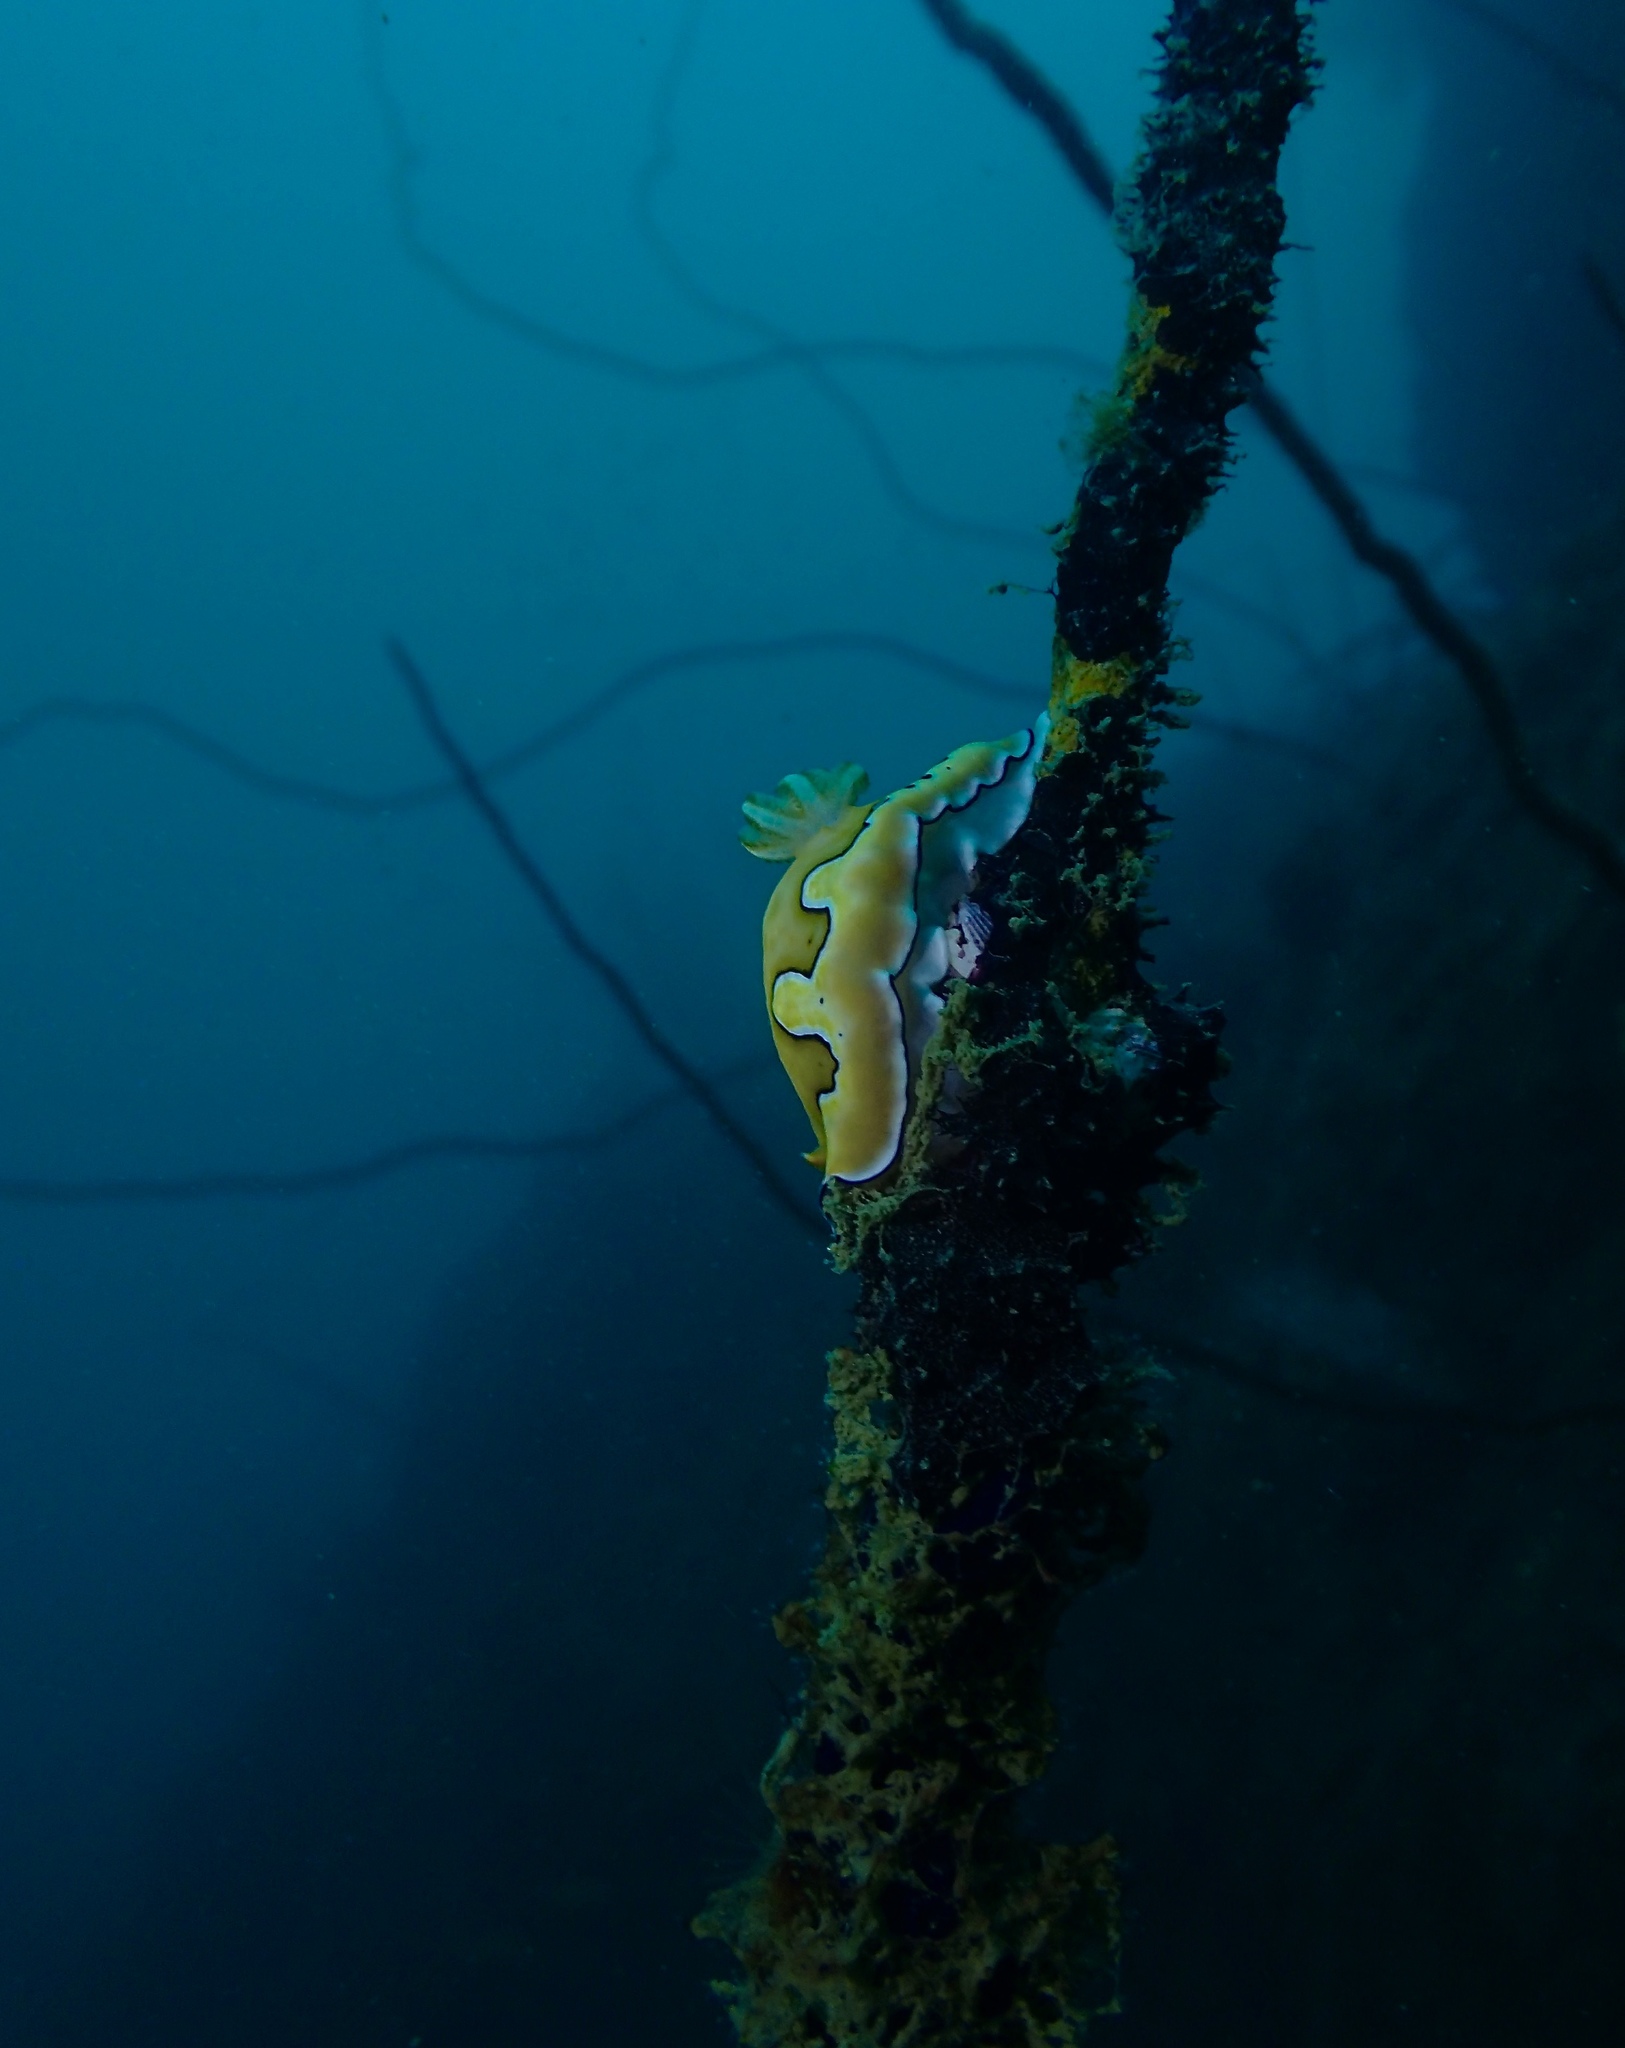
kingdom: Animalia
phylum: Mollusca
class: Gastropoda
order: Nudibranchia
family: Chromodorididae
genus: Goniobranchus
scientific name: Goniobranchus coi
